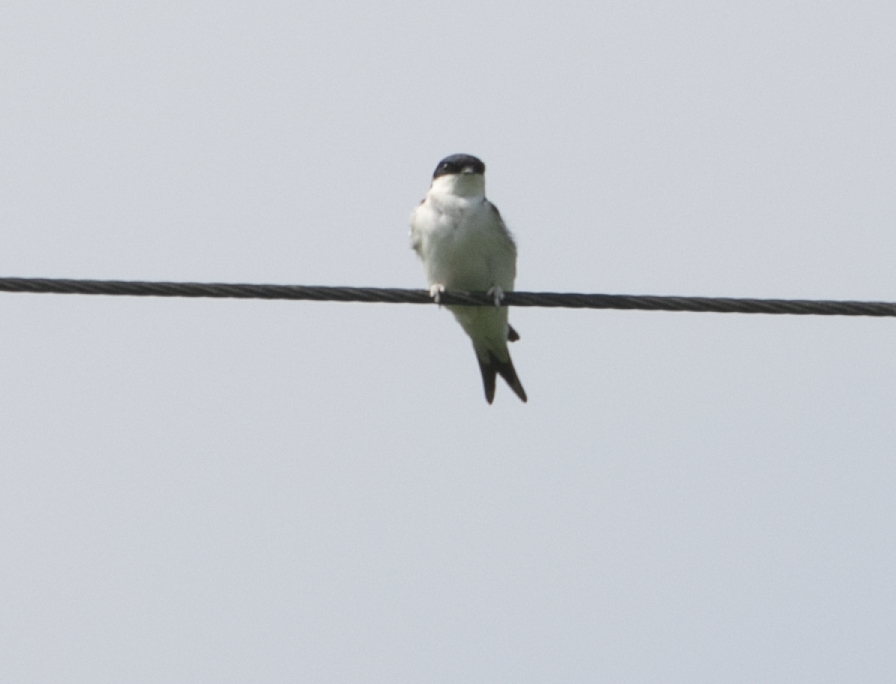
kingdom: Animalia
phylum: Chordata
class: Aves
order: Passeriformes
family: Hirundinidae
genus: Delichon
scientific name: Delichon urbicum
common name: Common house martin
